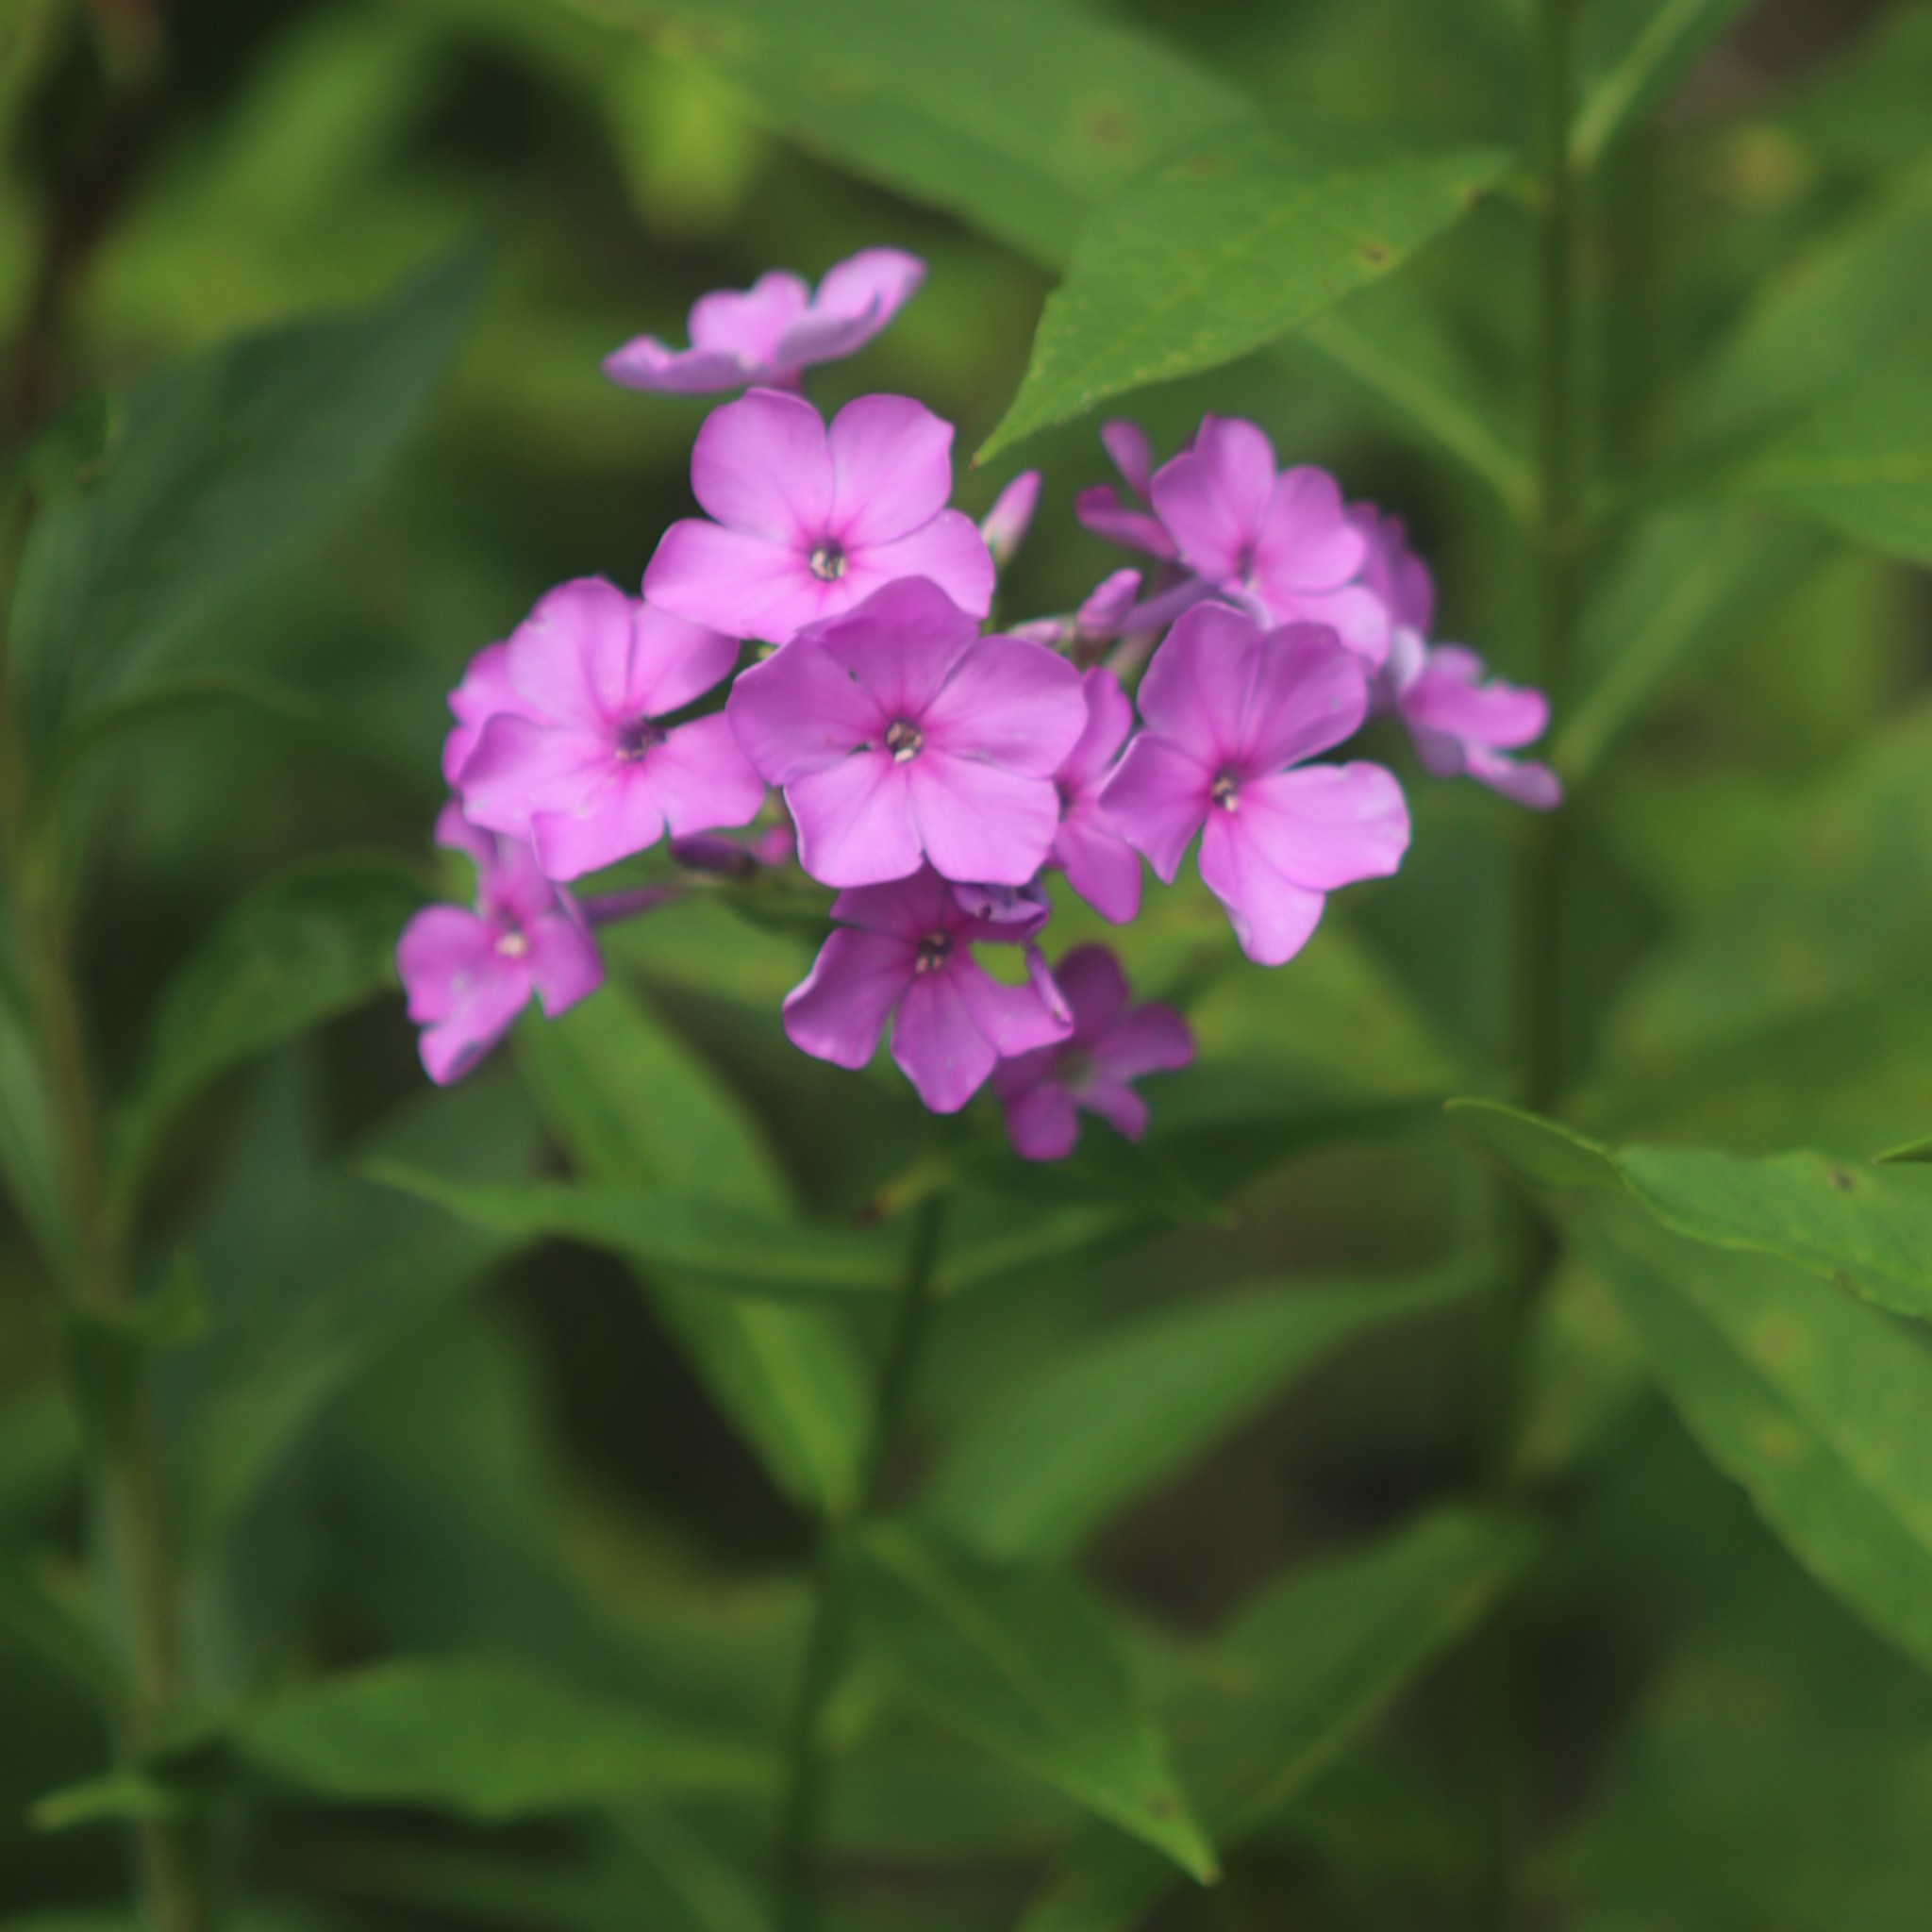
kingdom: Plantae
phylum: Tracheophyta
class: Magnoliopsida
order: Ericales
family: Polemoniaceae
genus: Phlox
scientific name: Phlox paniculata
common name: Fall phlox
